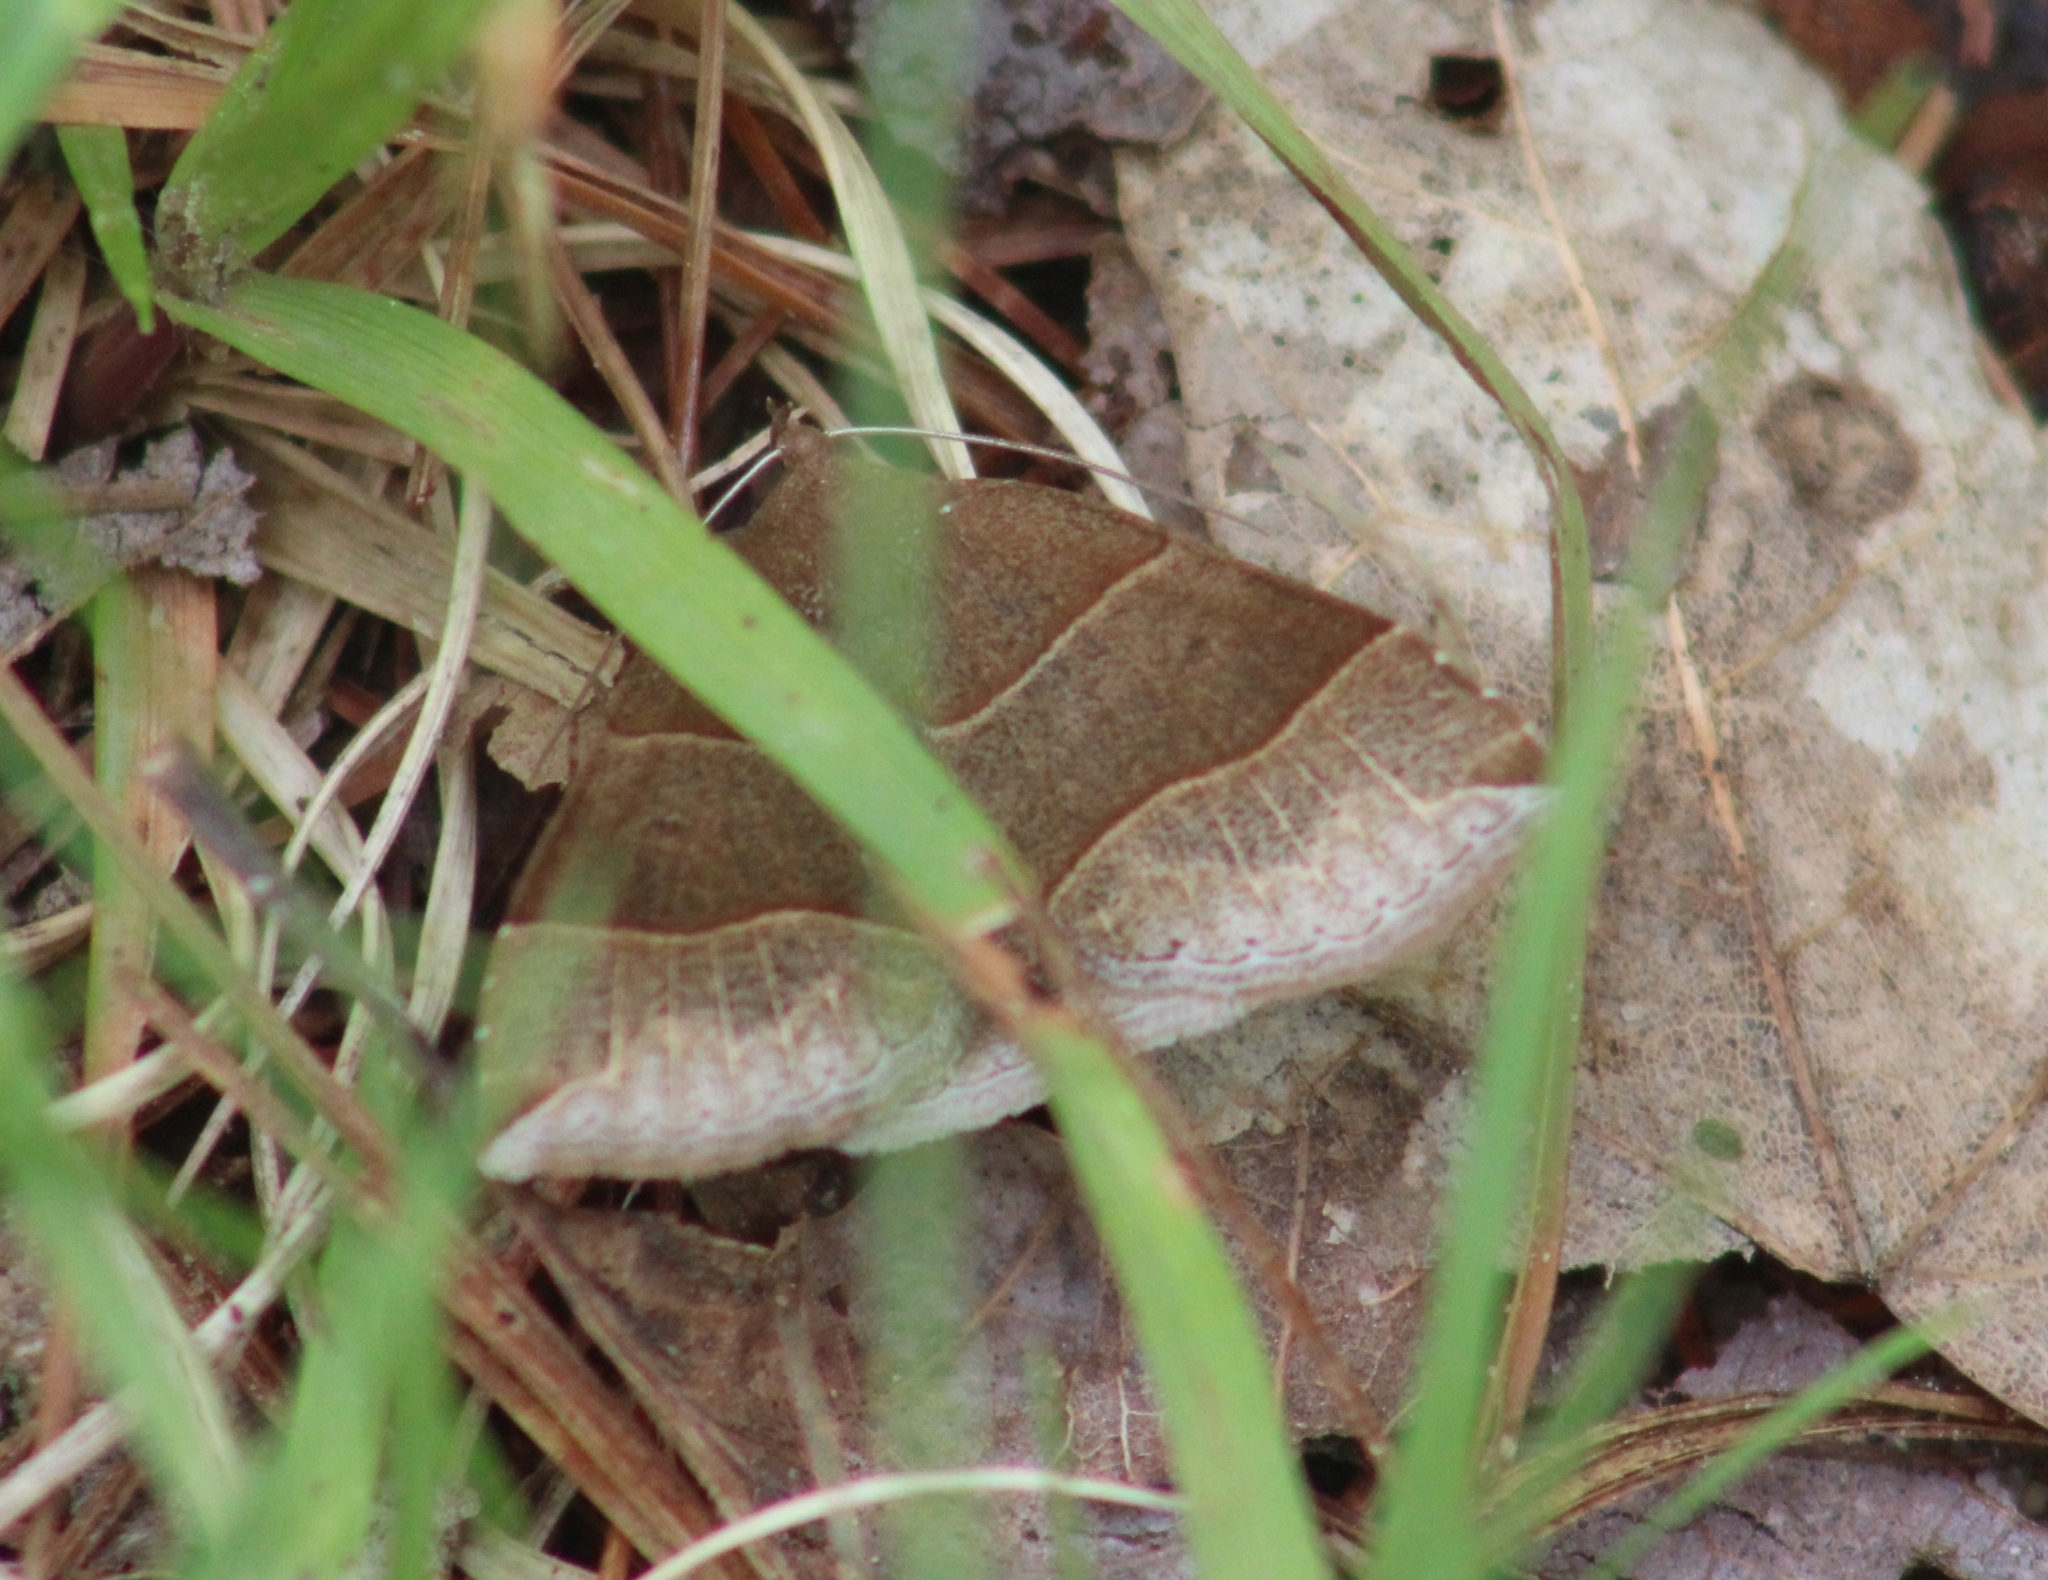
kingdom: Animalia
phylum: Arthropoda
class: Insecta
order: Lepidoptera
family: Erebidae
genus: Parallelia
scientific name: Parallelia bistriaris
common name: Maple looper moth
